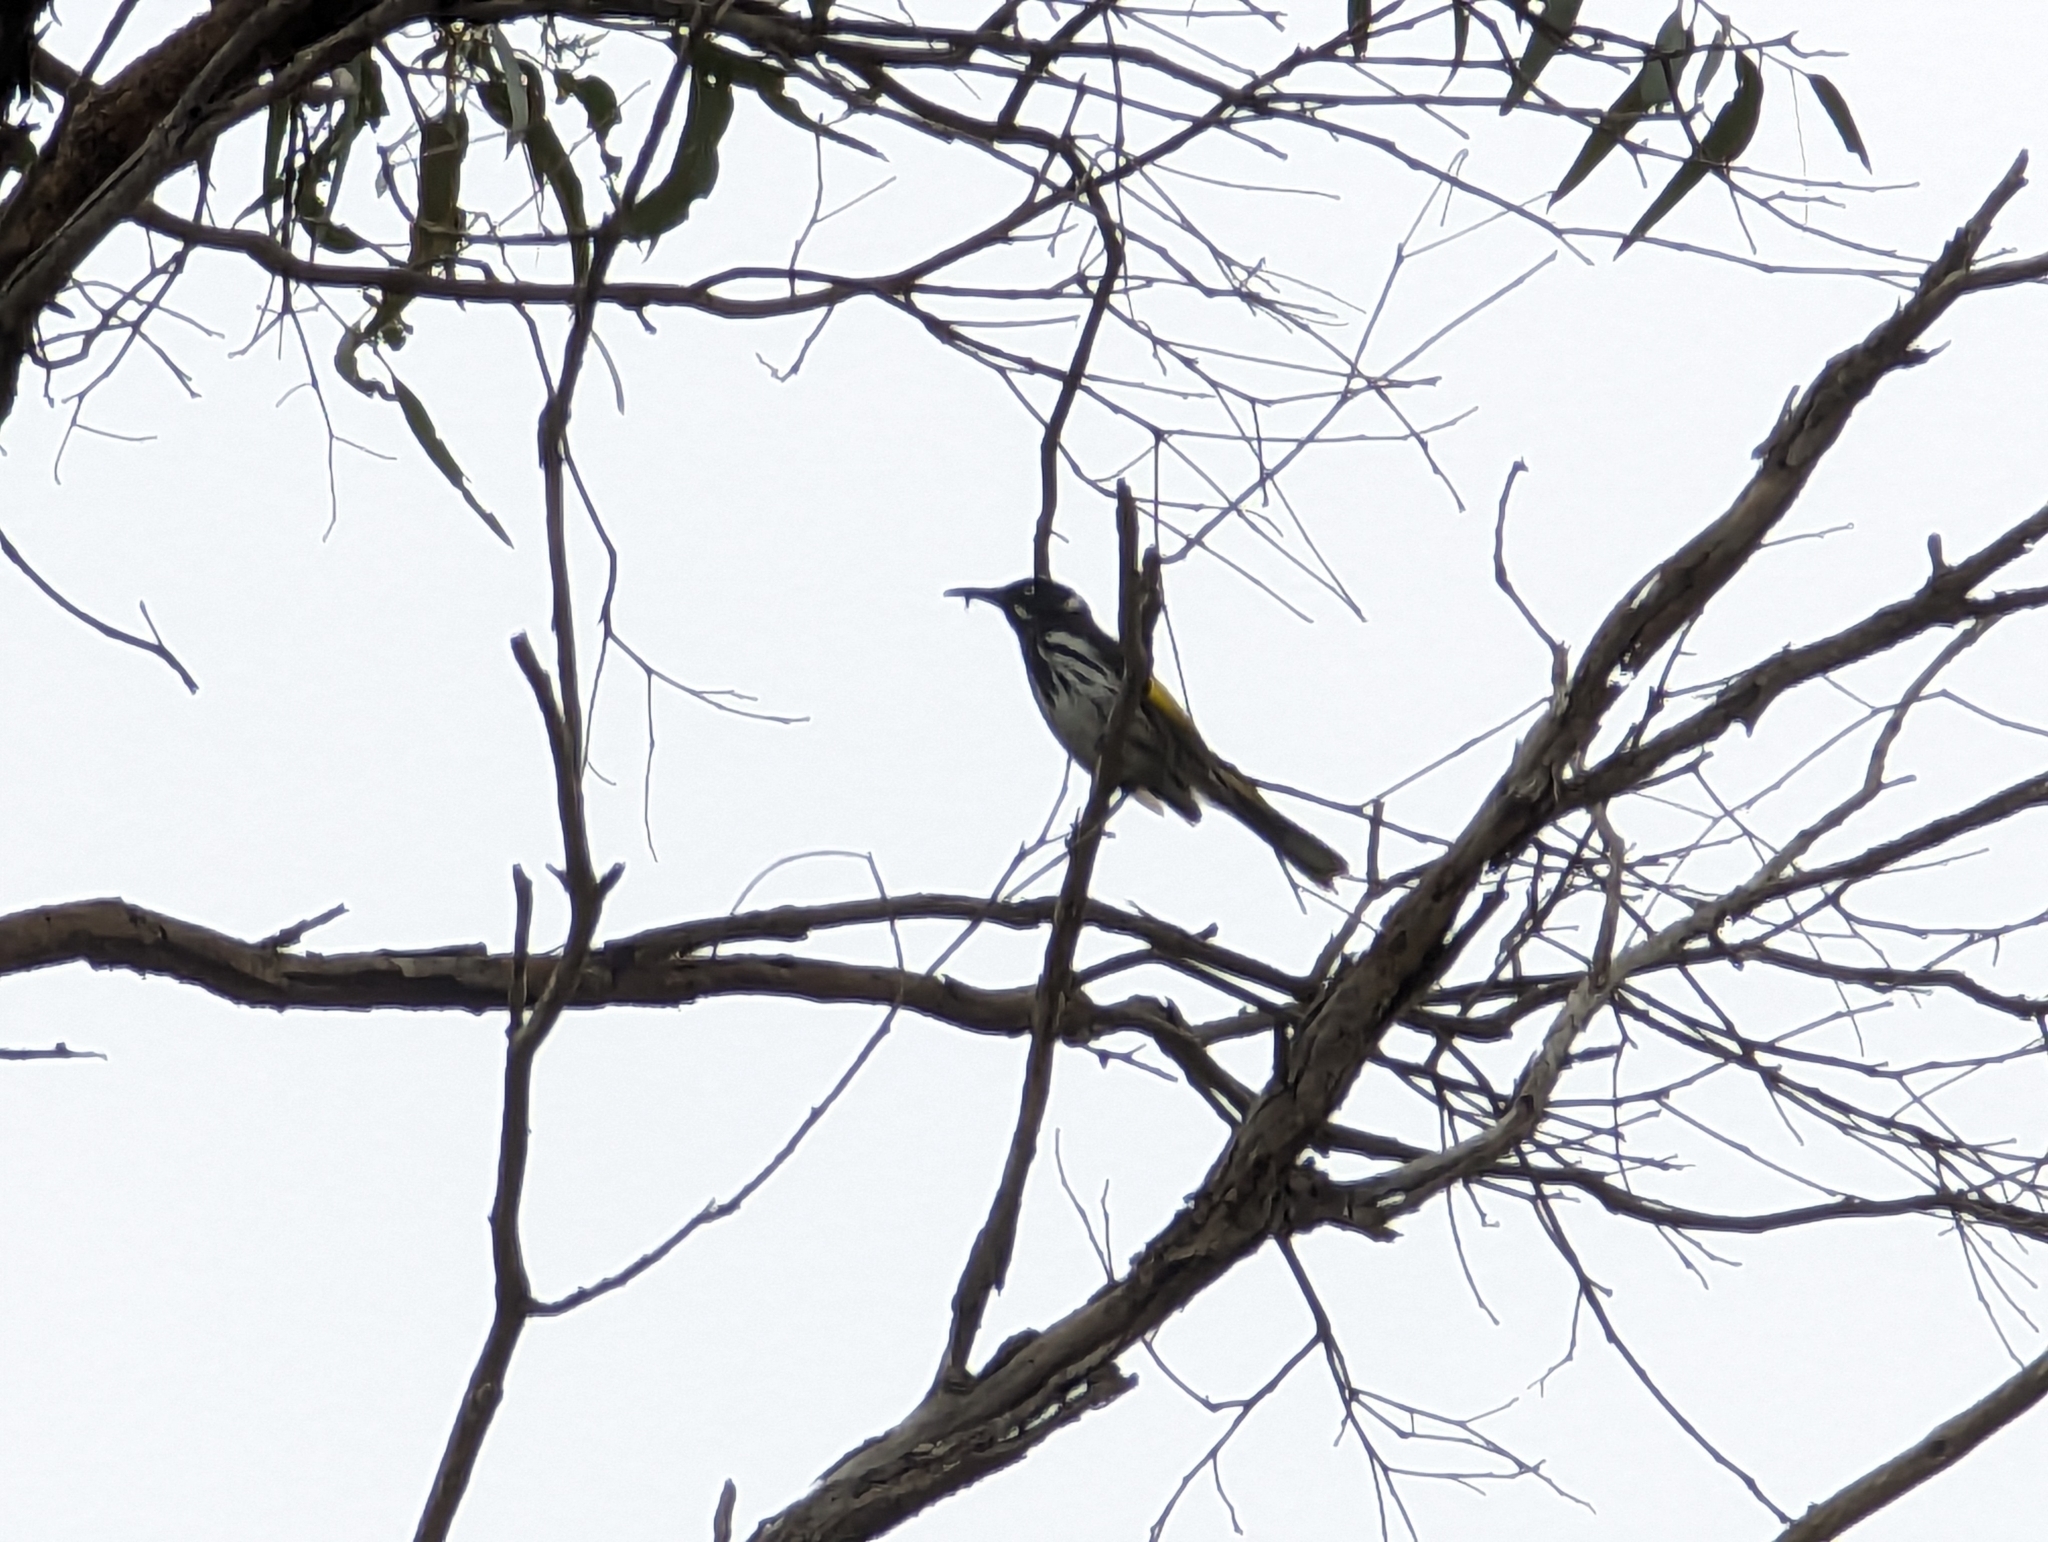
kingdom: Animalia
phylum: Chordata
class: Aves
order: Passeriformes
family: Meliphagidae
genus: Phylidonyris
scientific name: Phylidonyris novaehollandiae
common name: New holland honeyeater
